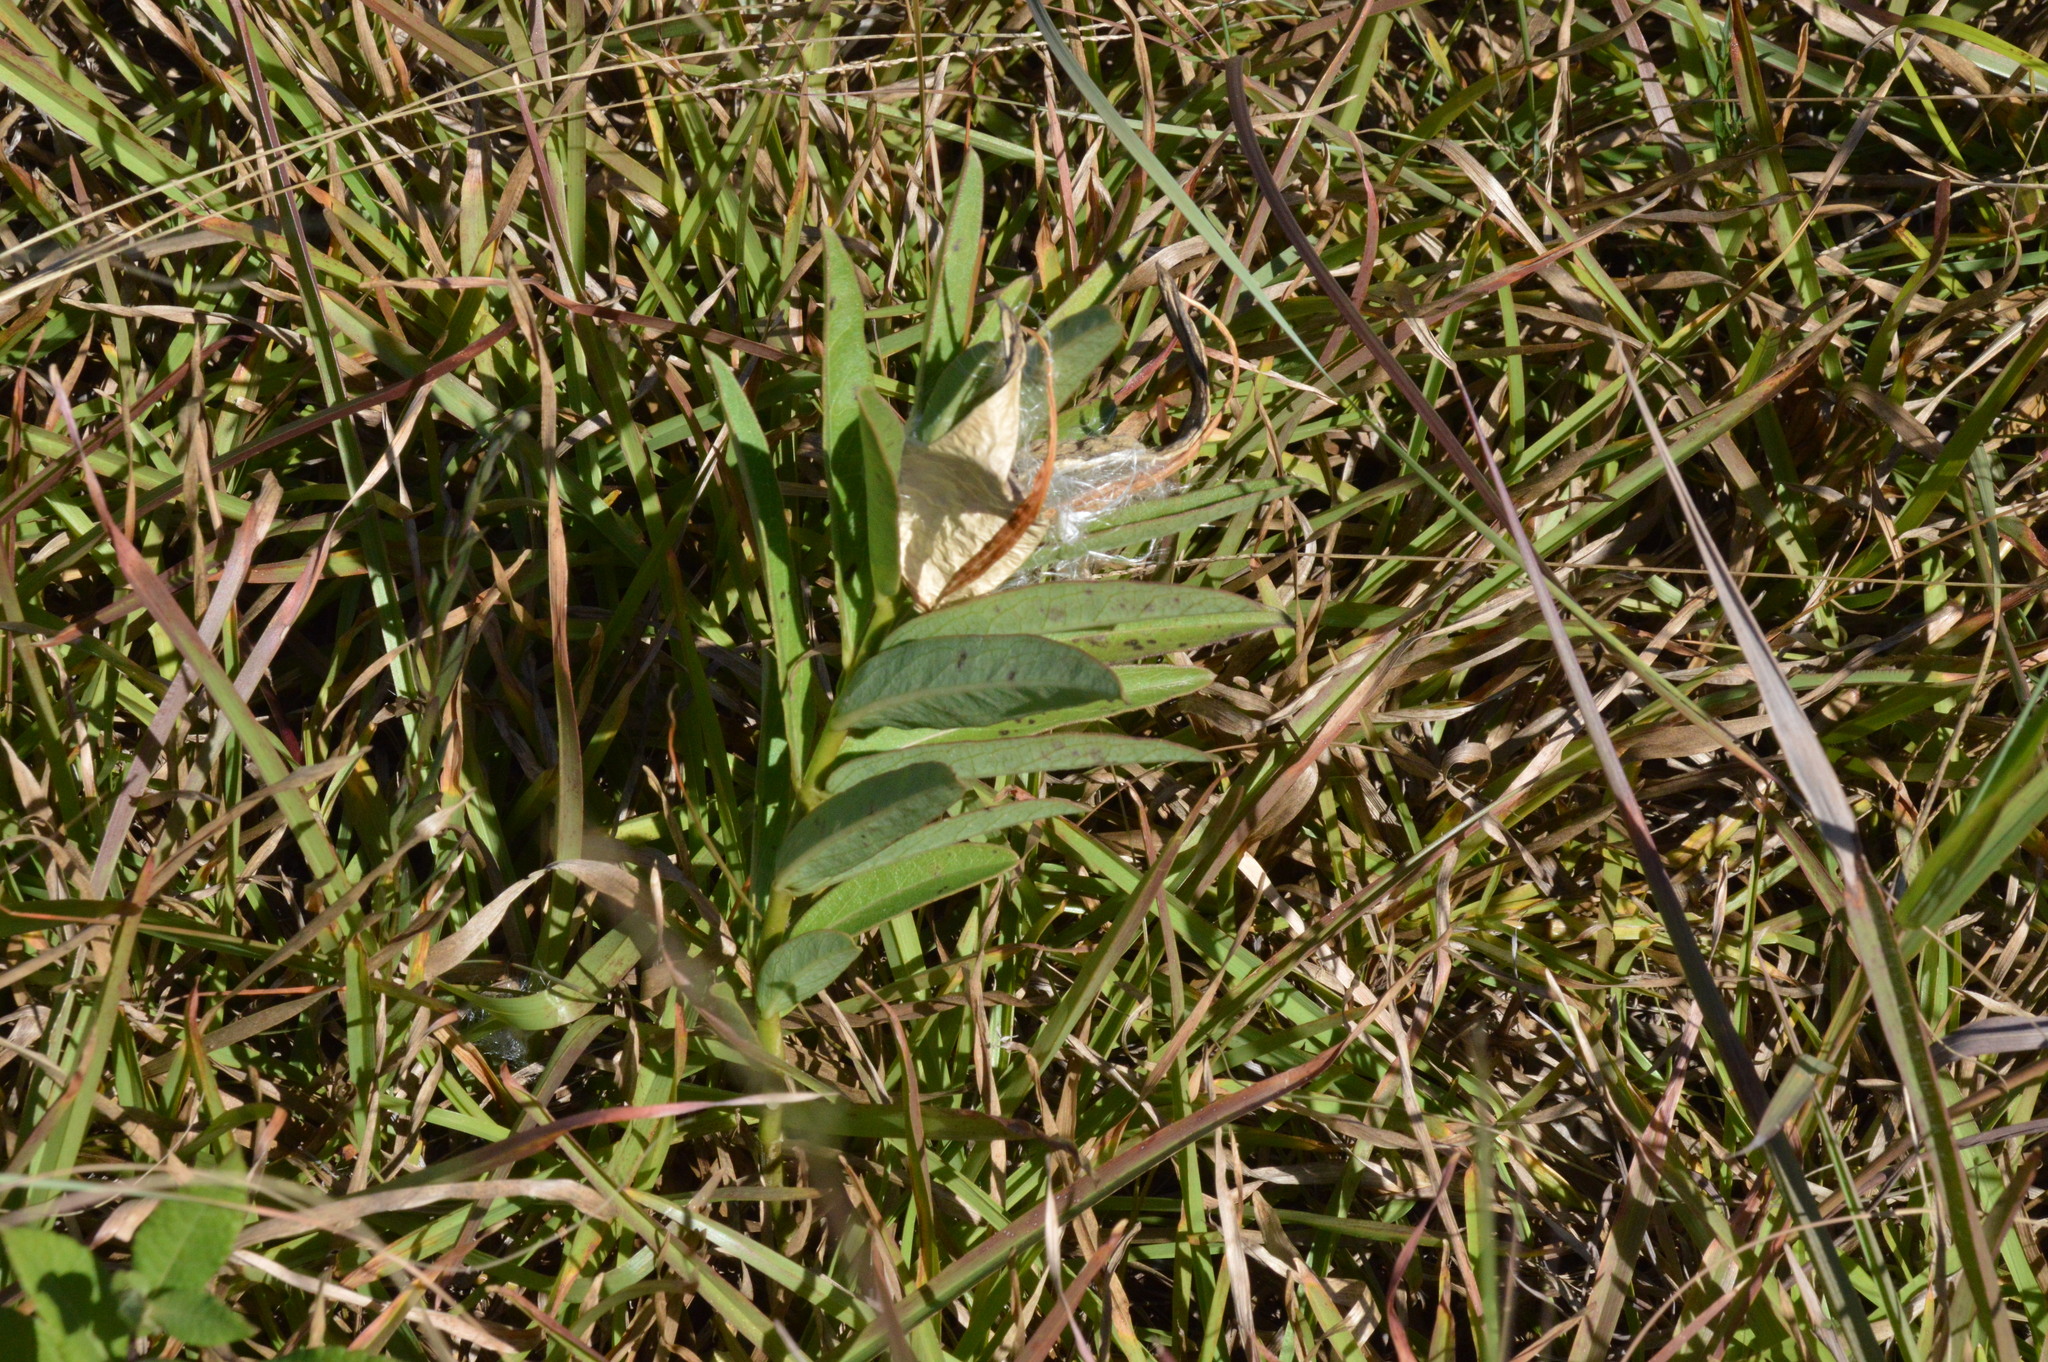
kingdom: Plantae
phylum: Tracheophyta
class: Magnoliopsida
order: Gentianales
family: Apocynaceae
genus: Asclepias
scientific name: Asclepias viridis
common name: Antelope-horns
